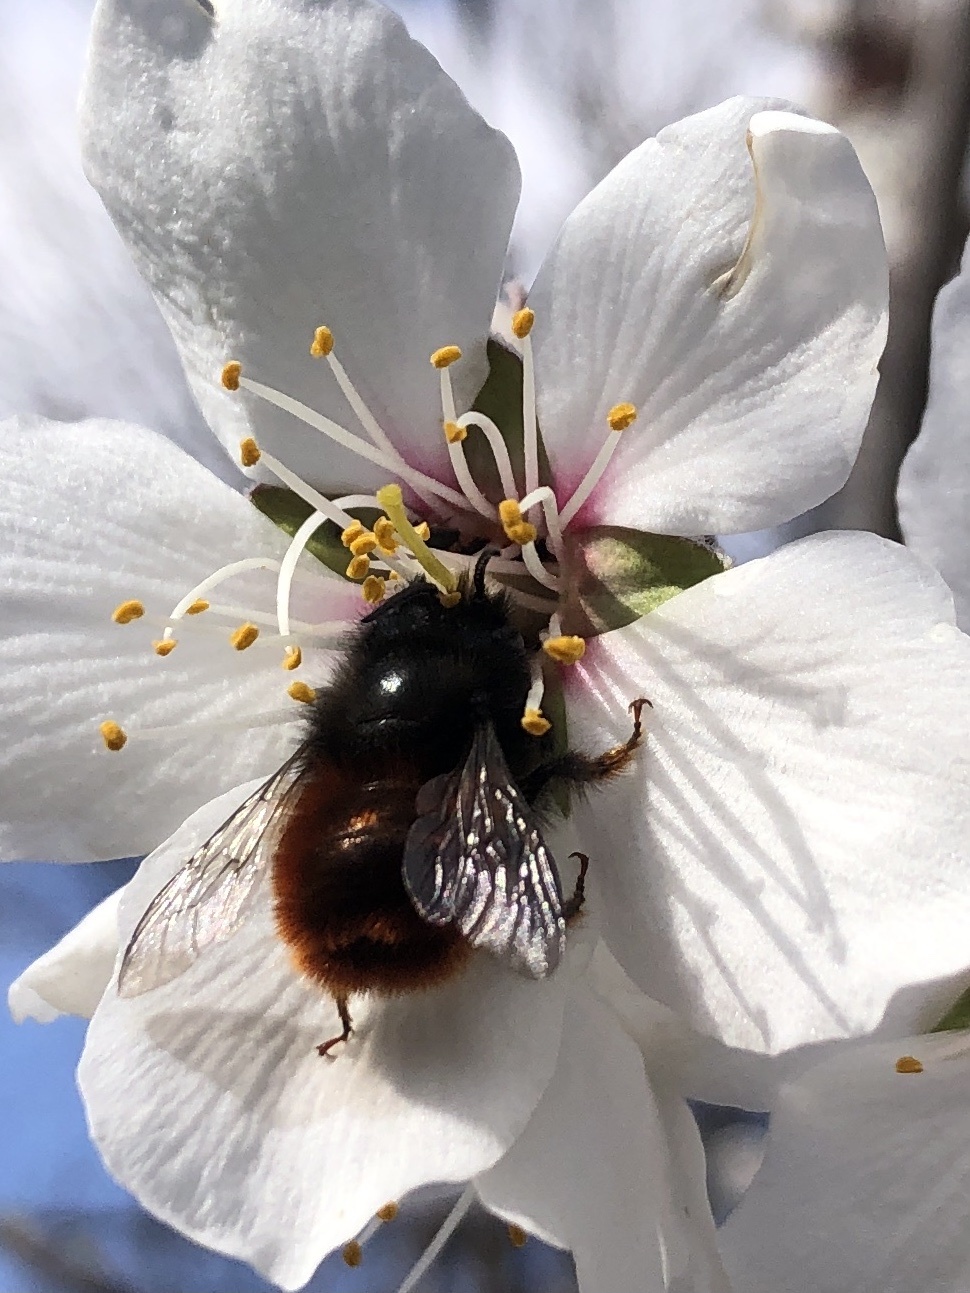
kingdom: Animalia
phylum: Arthropoda
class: Insecta
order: Hymenoptera
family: Megachilidae
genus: Osmia
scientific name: Osmia cornuta
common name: Mason bee
